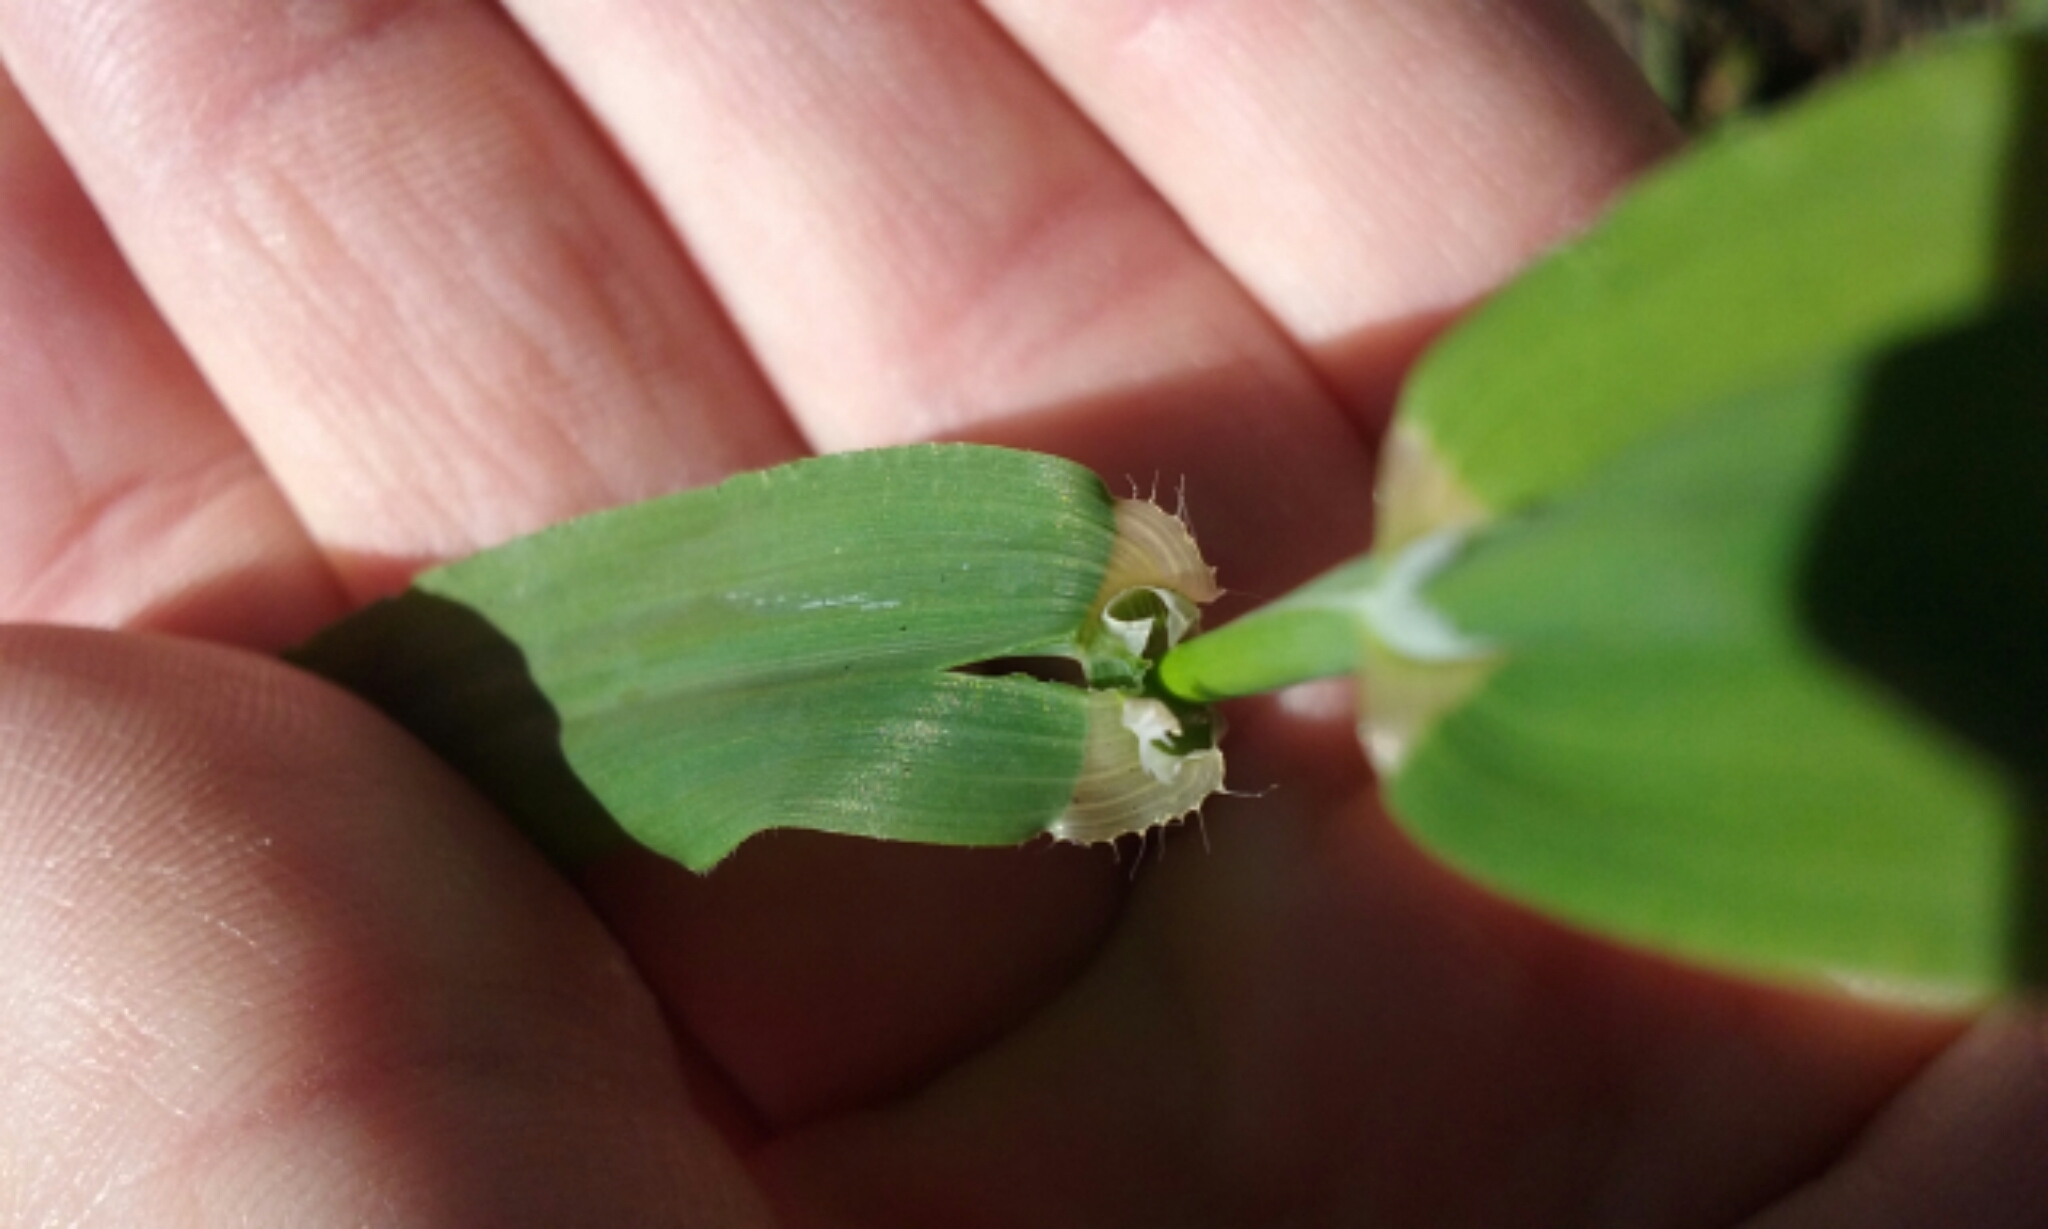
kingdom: Plantae
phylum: Tracheophyta
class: Liliopsida
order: Poales
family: Poaceae
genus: Ehrharta
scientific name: Ehrharta erecta
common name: Panic veldtgrass
